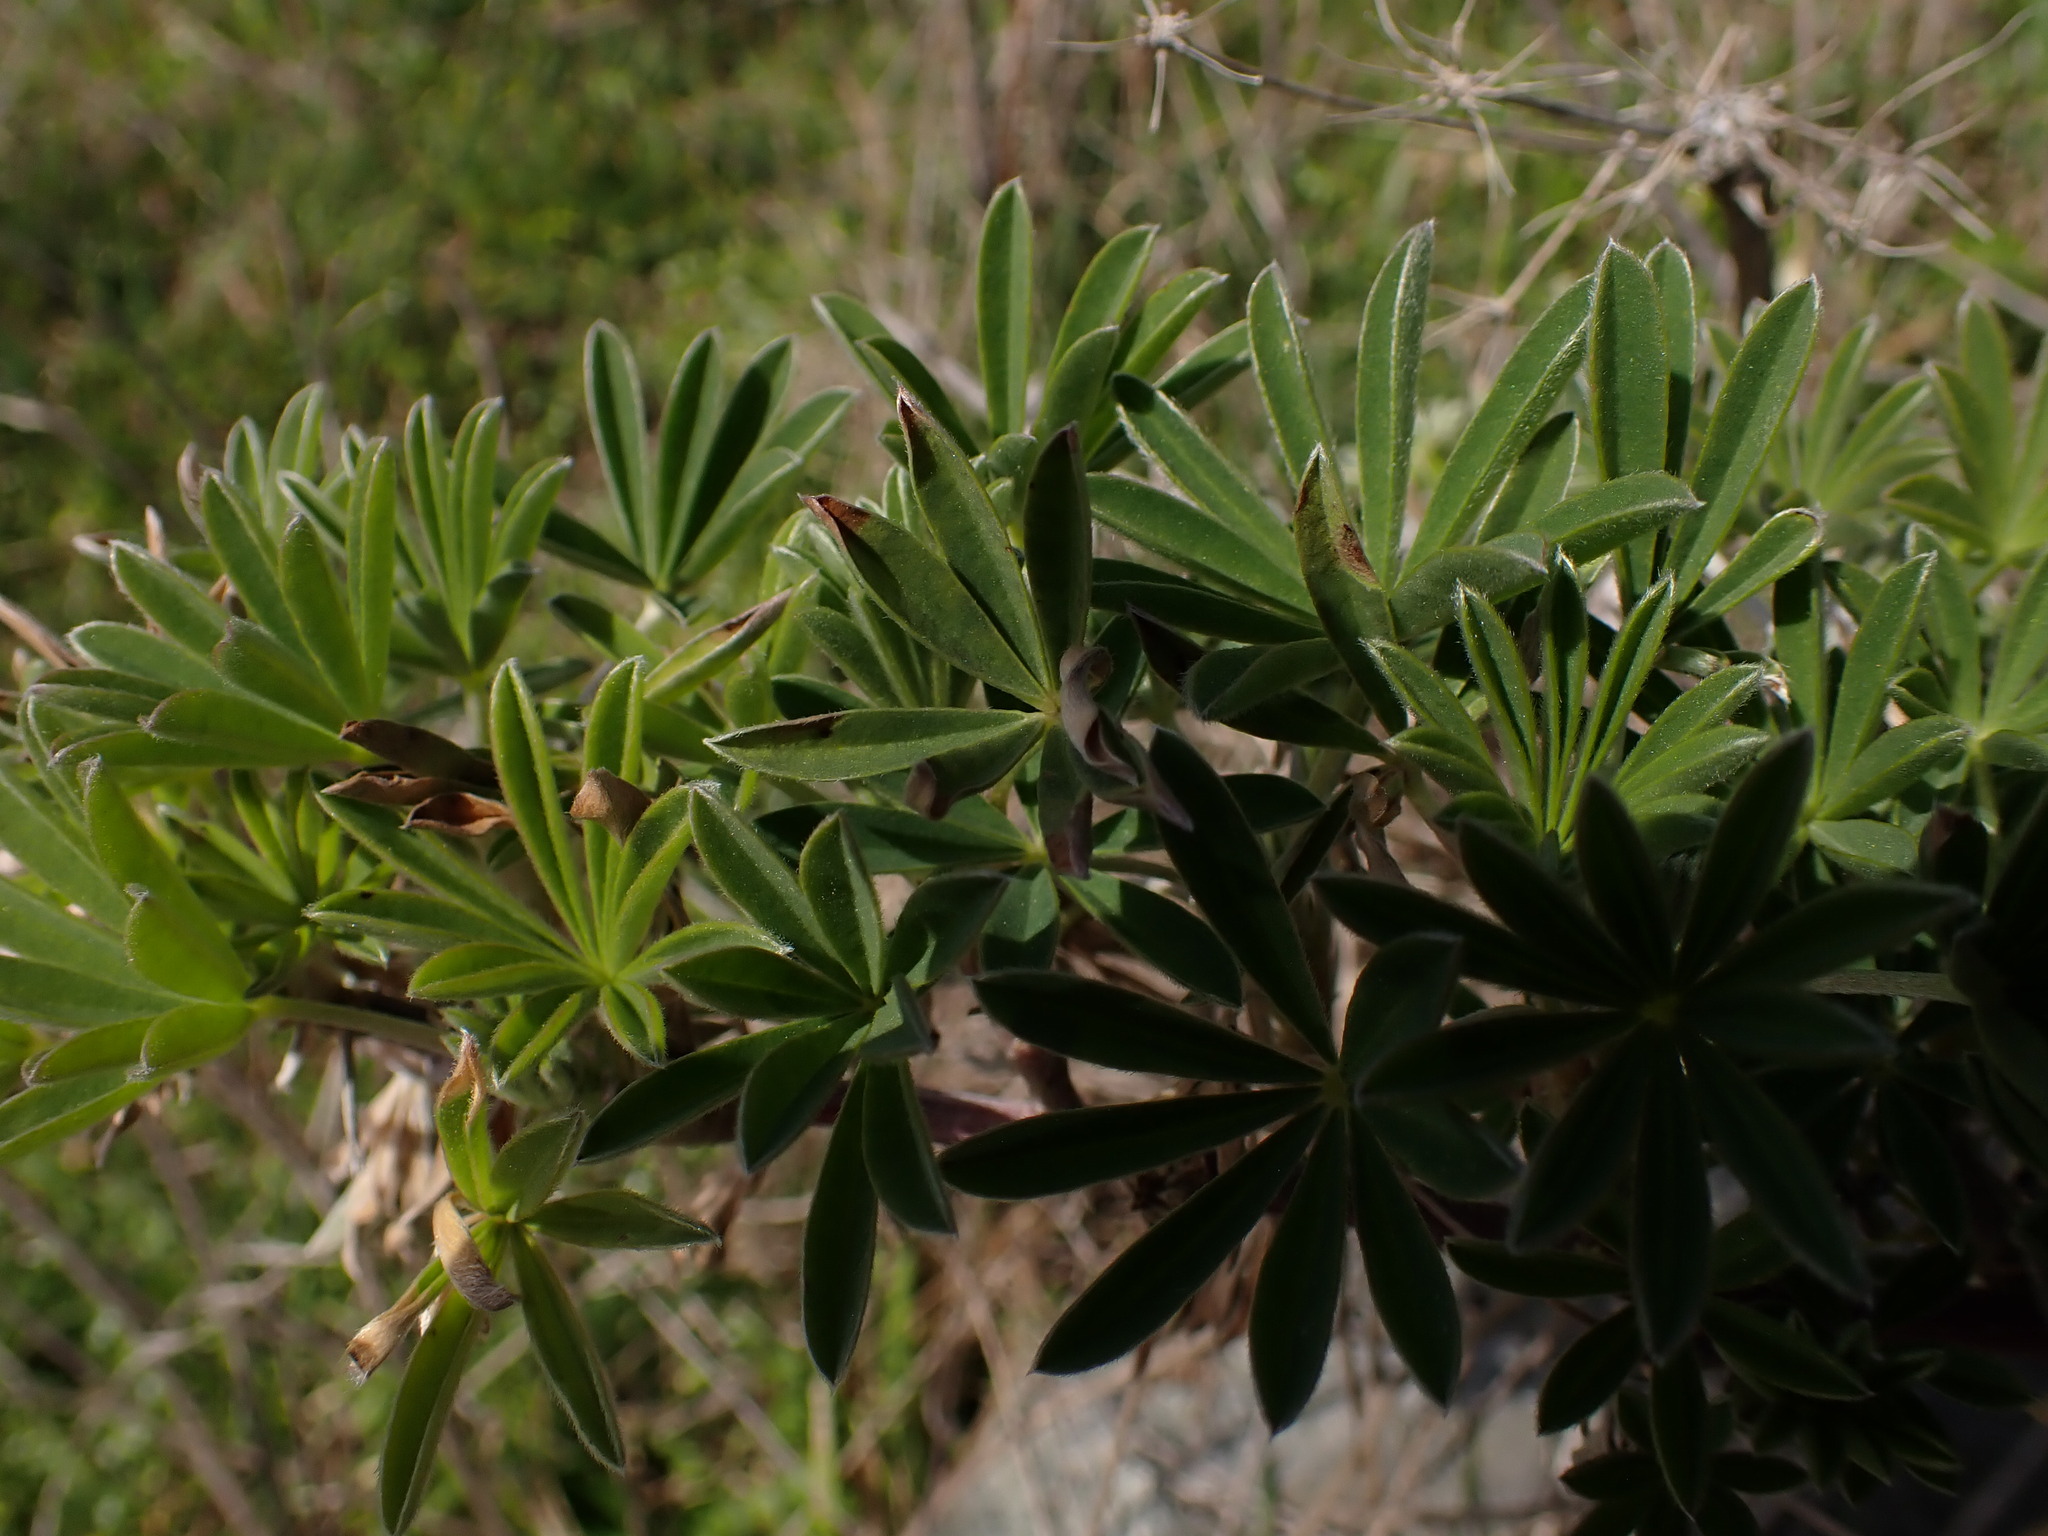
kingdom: Plantae
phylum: Tracheophyta
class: Magnoliopsida
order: Fabales
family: Fabaceae
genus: Lupinus
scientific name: Lupinus arboreus
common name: Yellow bush lupine
